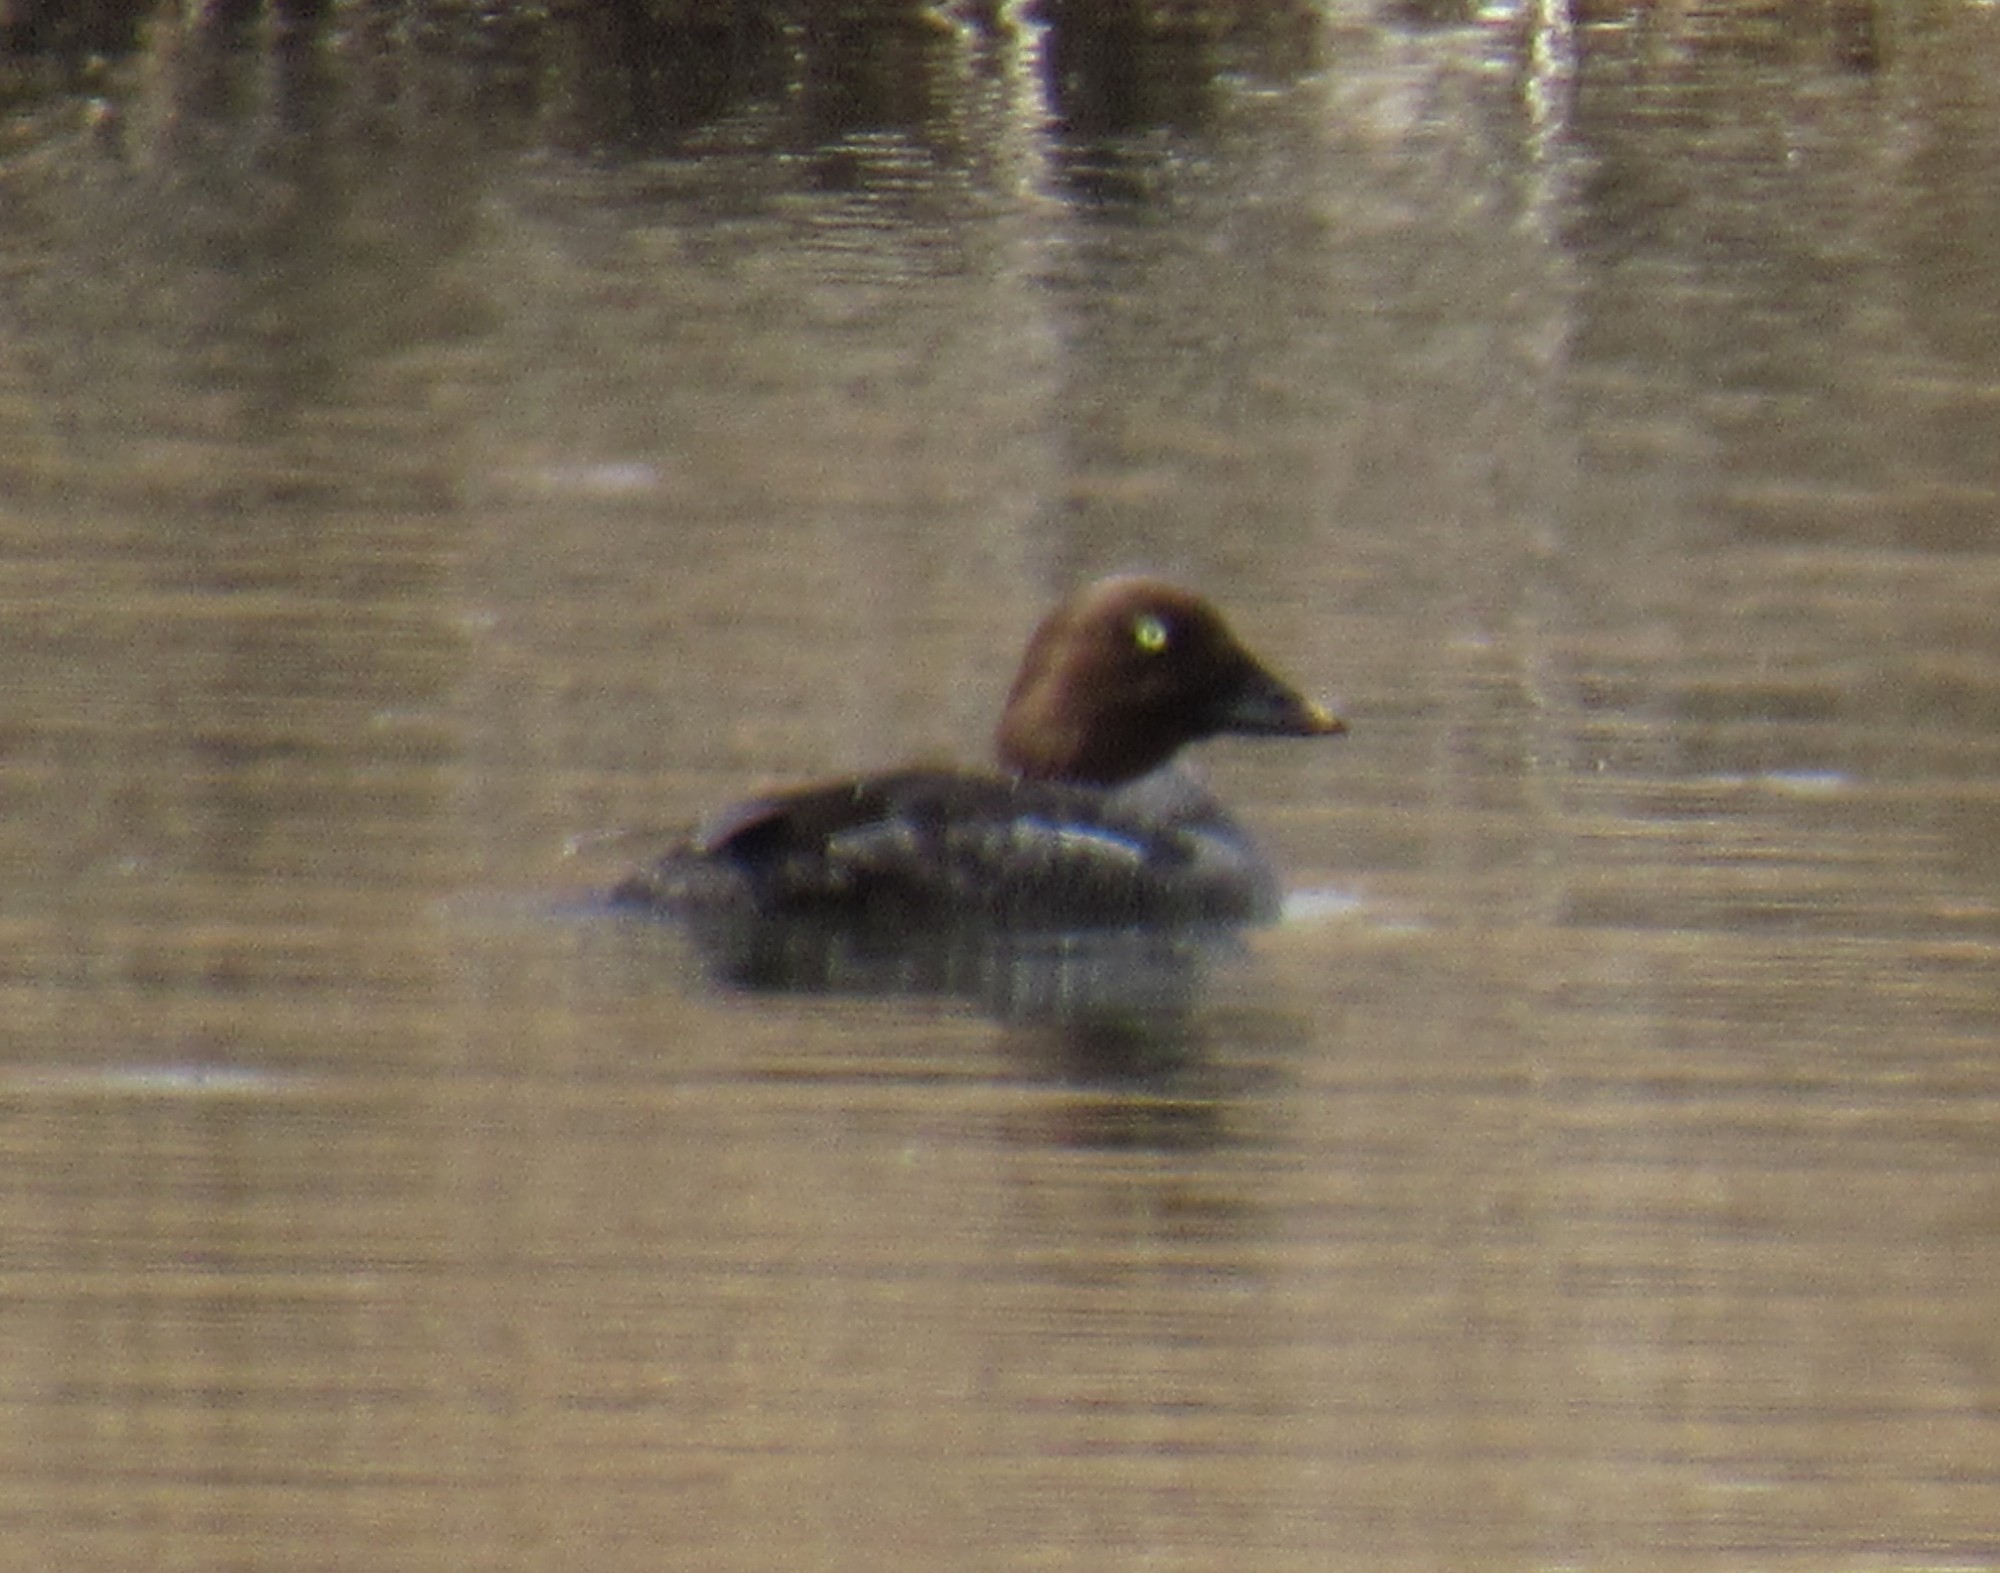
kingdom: Animalia
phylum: Chordata
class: Aves
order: Anseriformes
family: Anatidae
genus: Bucephala
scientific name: Bucephala clangula
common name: Common goldeneye
